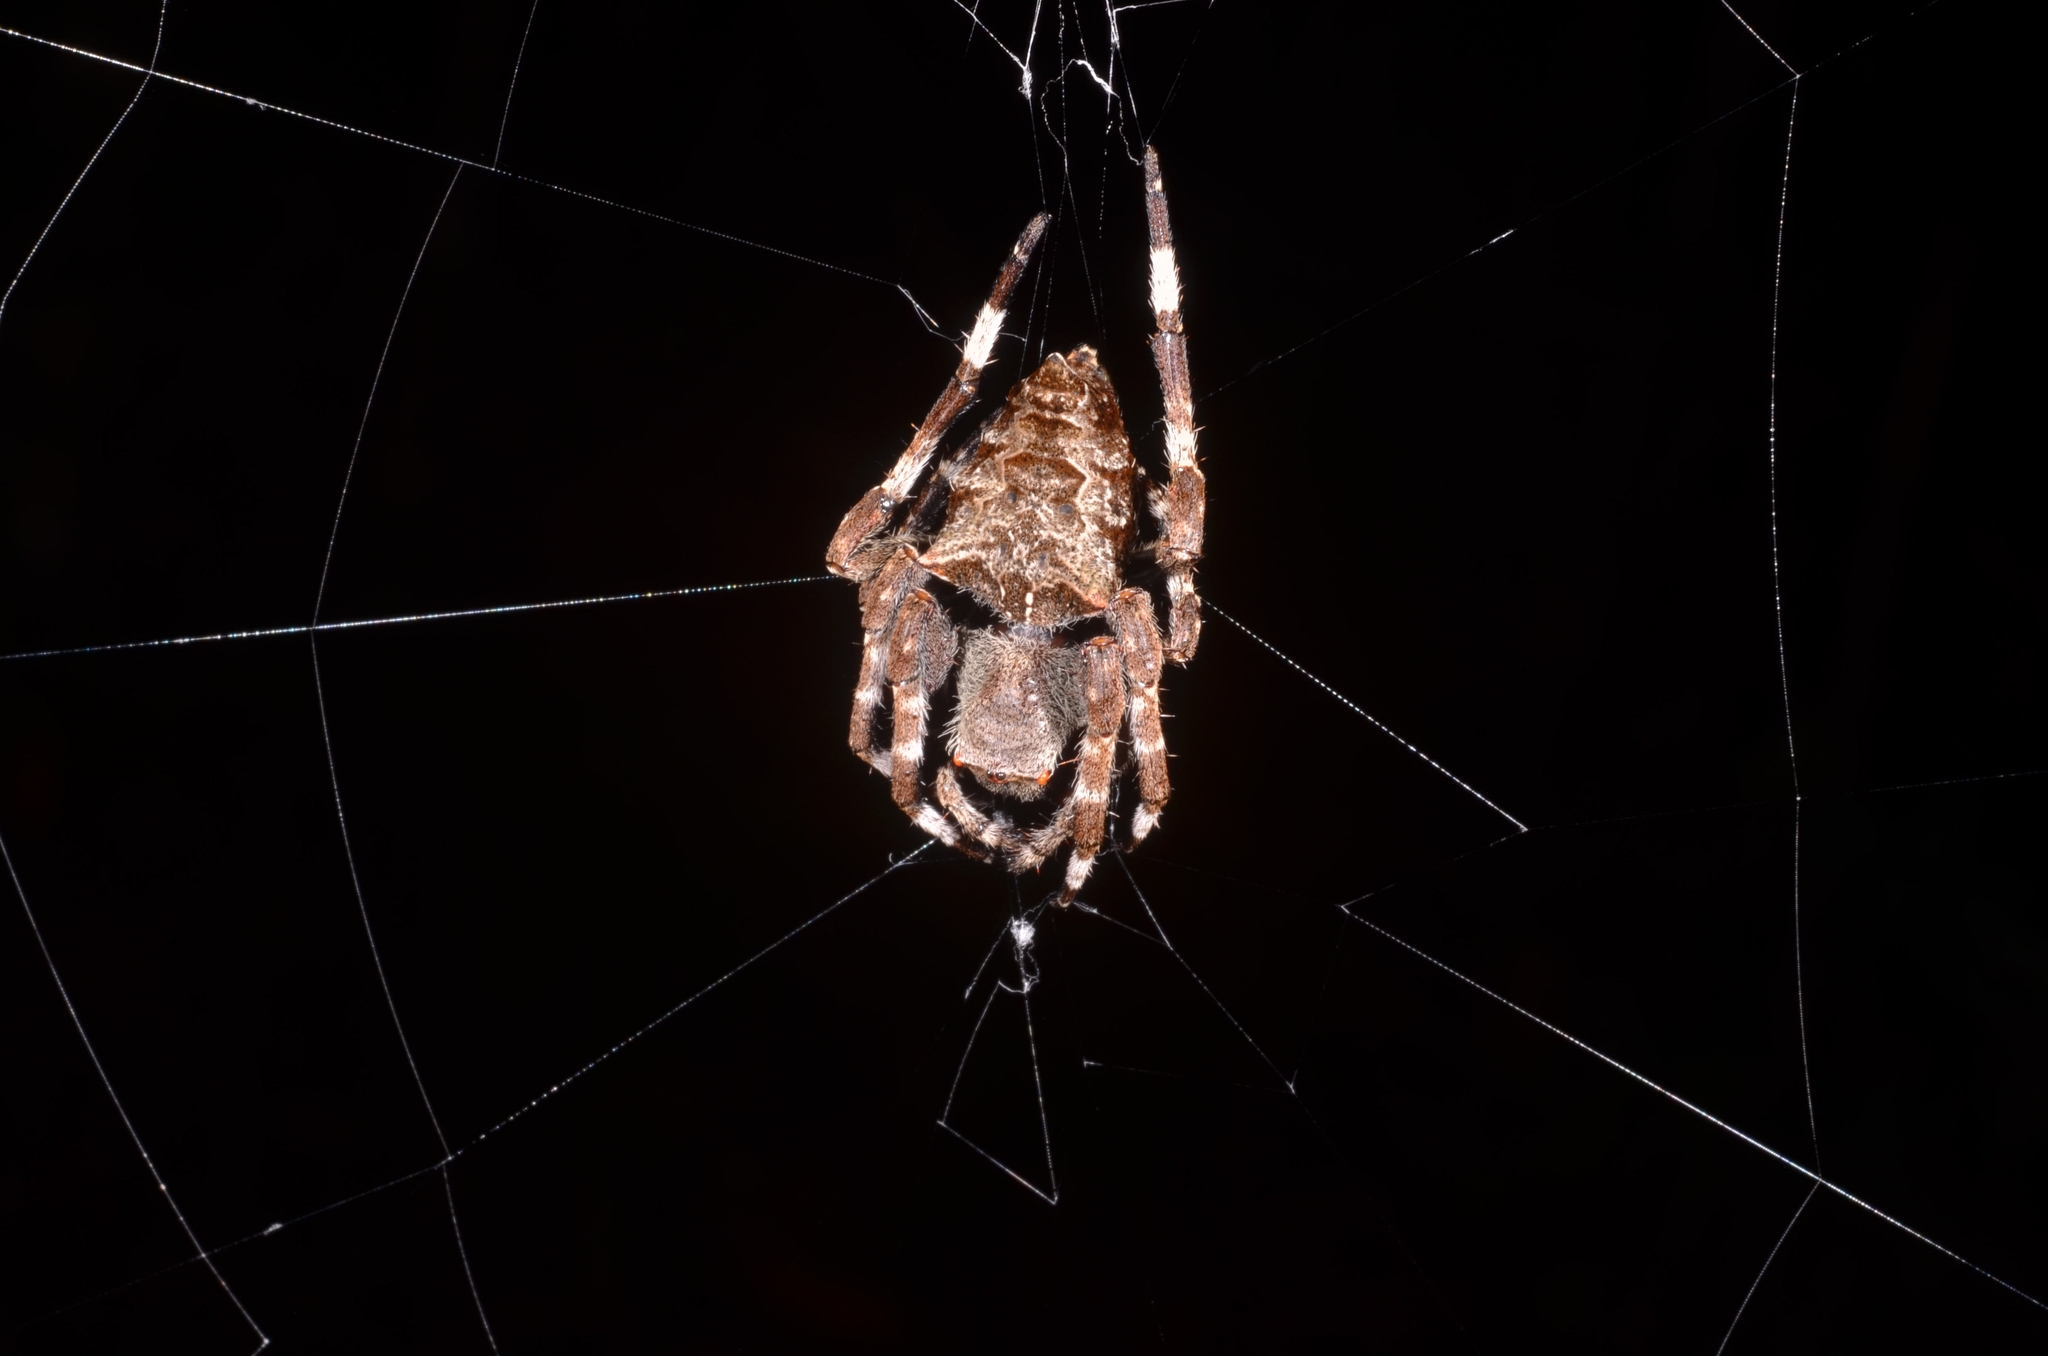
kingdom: Animalia
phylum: Arthropoda
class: Arachnida
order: Araneae
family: Araneidae
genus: Parawixia
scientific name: Parawixia dehaani
